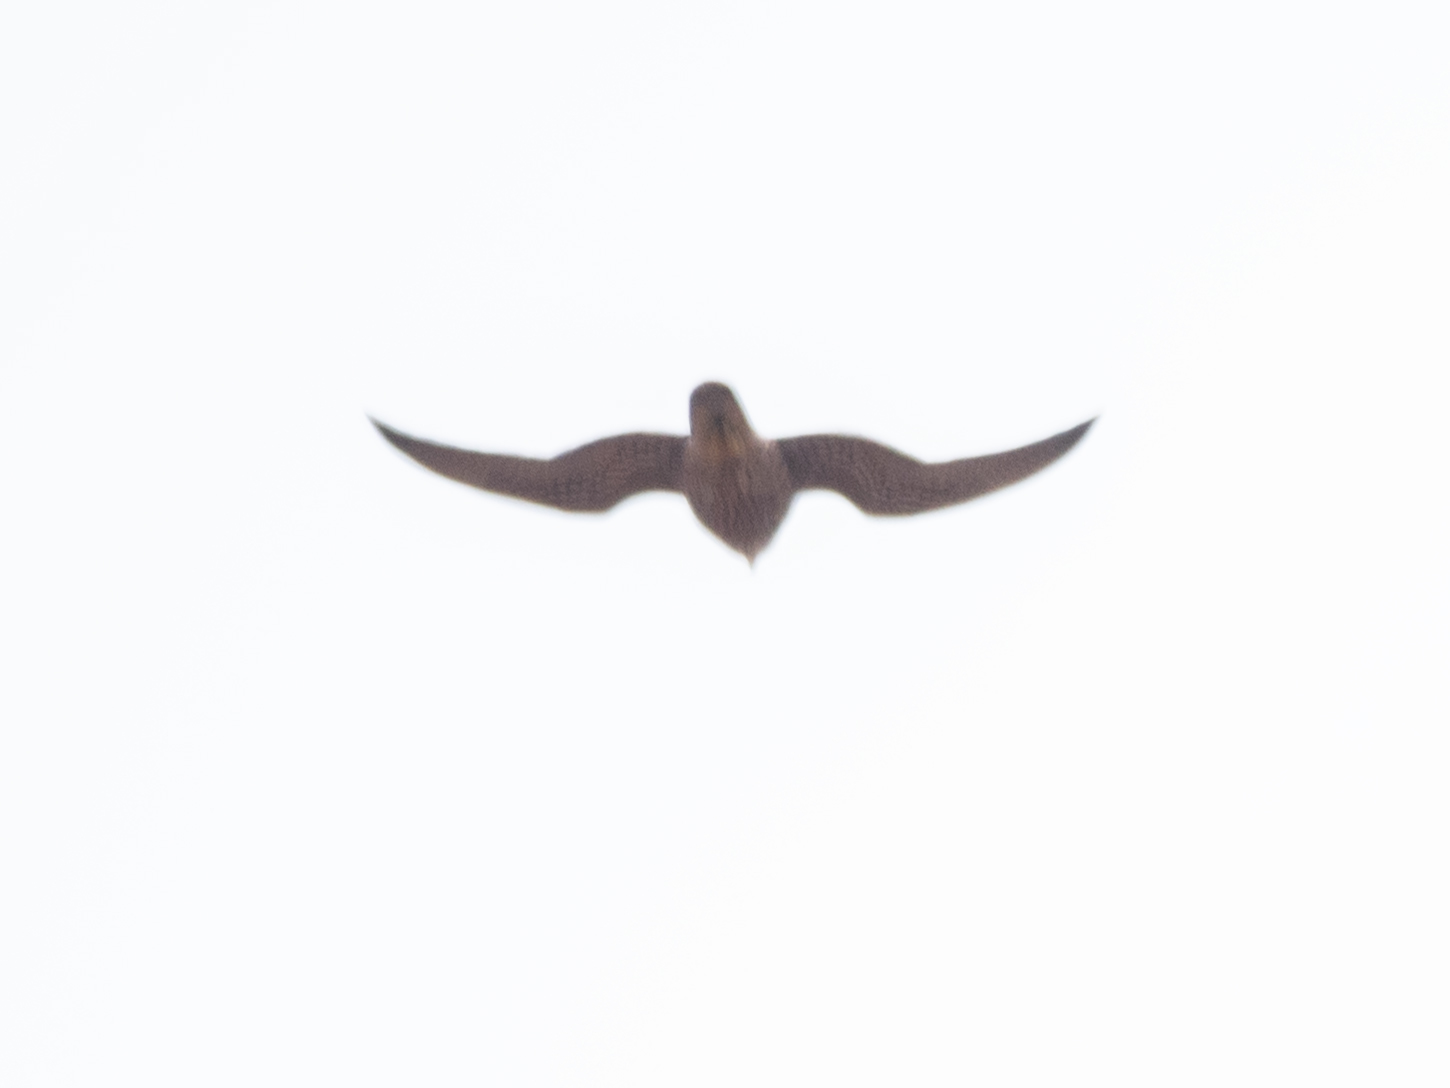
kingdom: Animalia
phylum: Chordata
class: Aves
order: Falconiformes
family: Falconidae
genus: Falco
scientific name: Falco peregrinus
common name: Peregrine falcon
